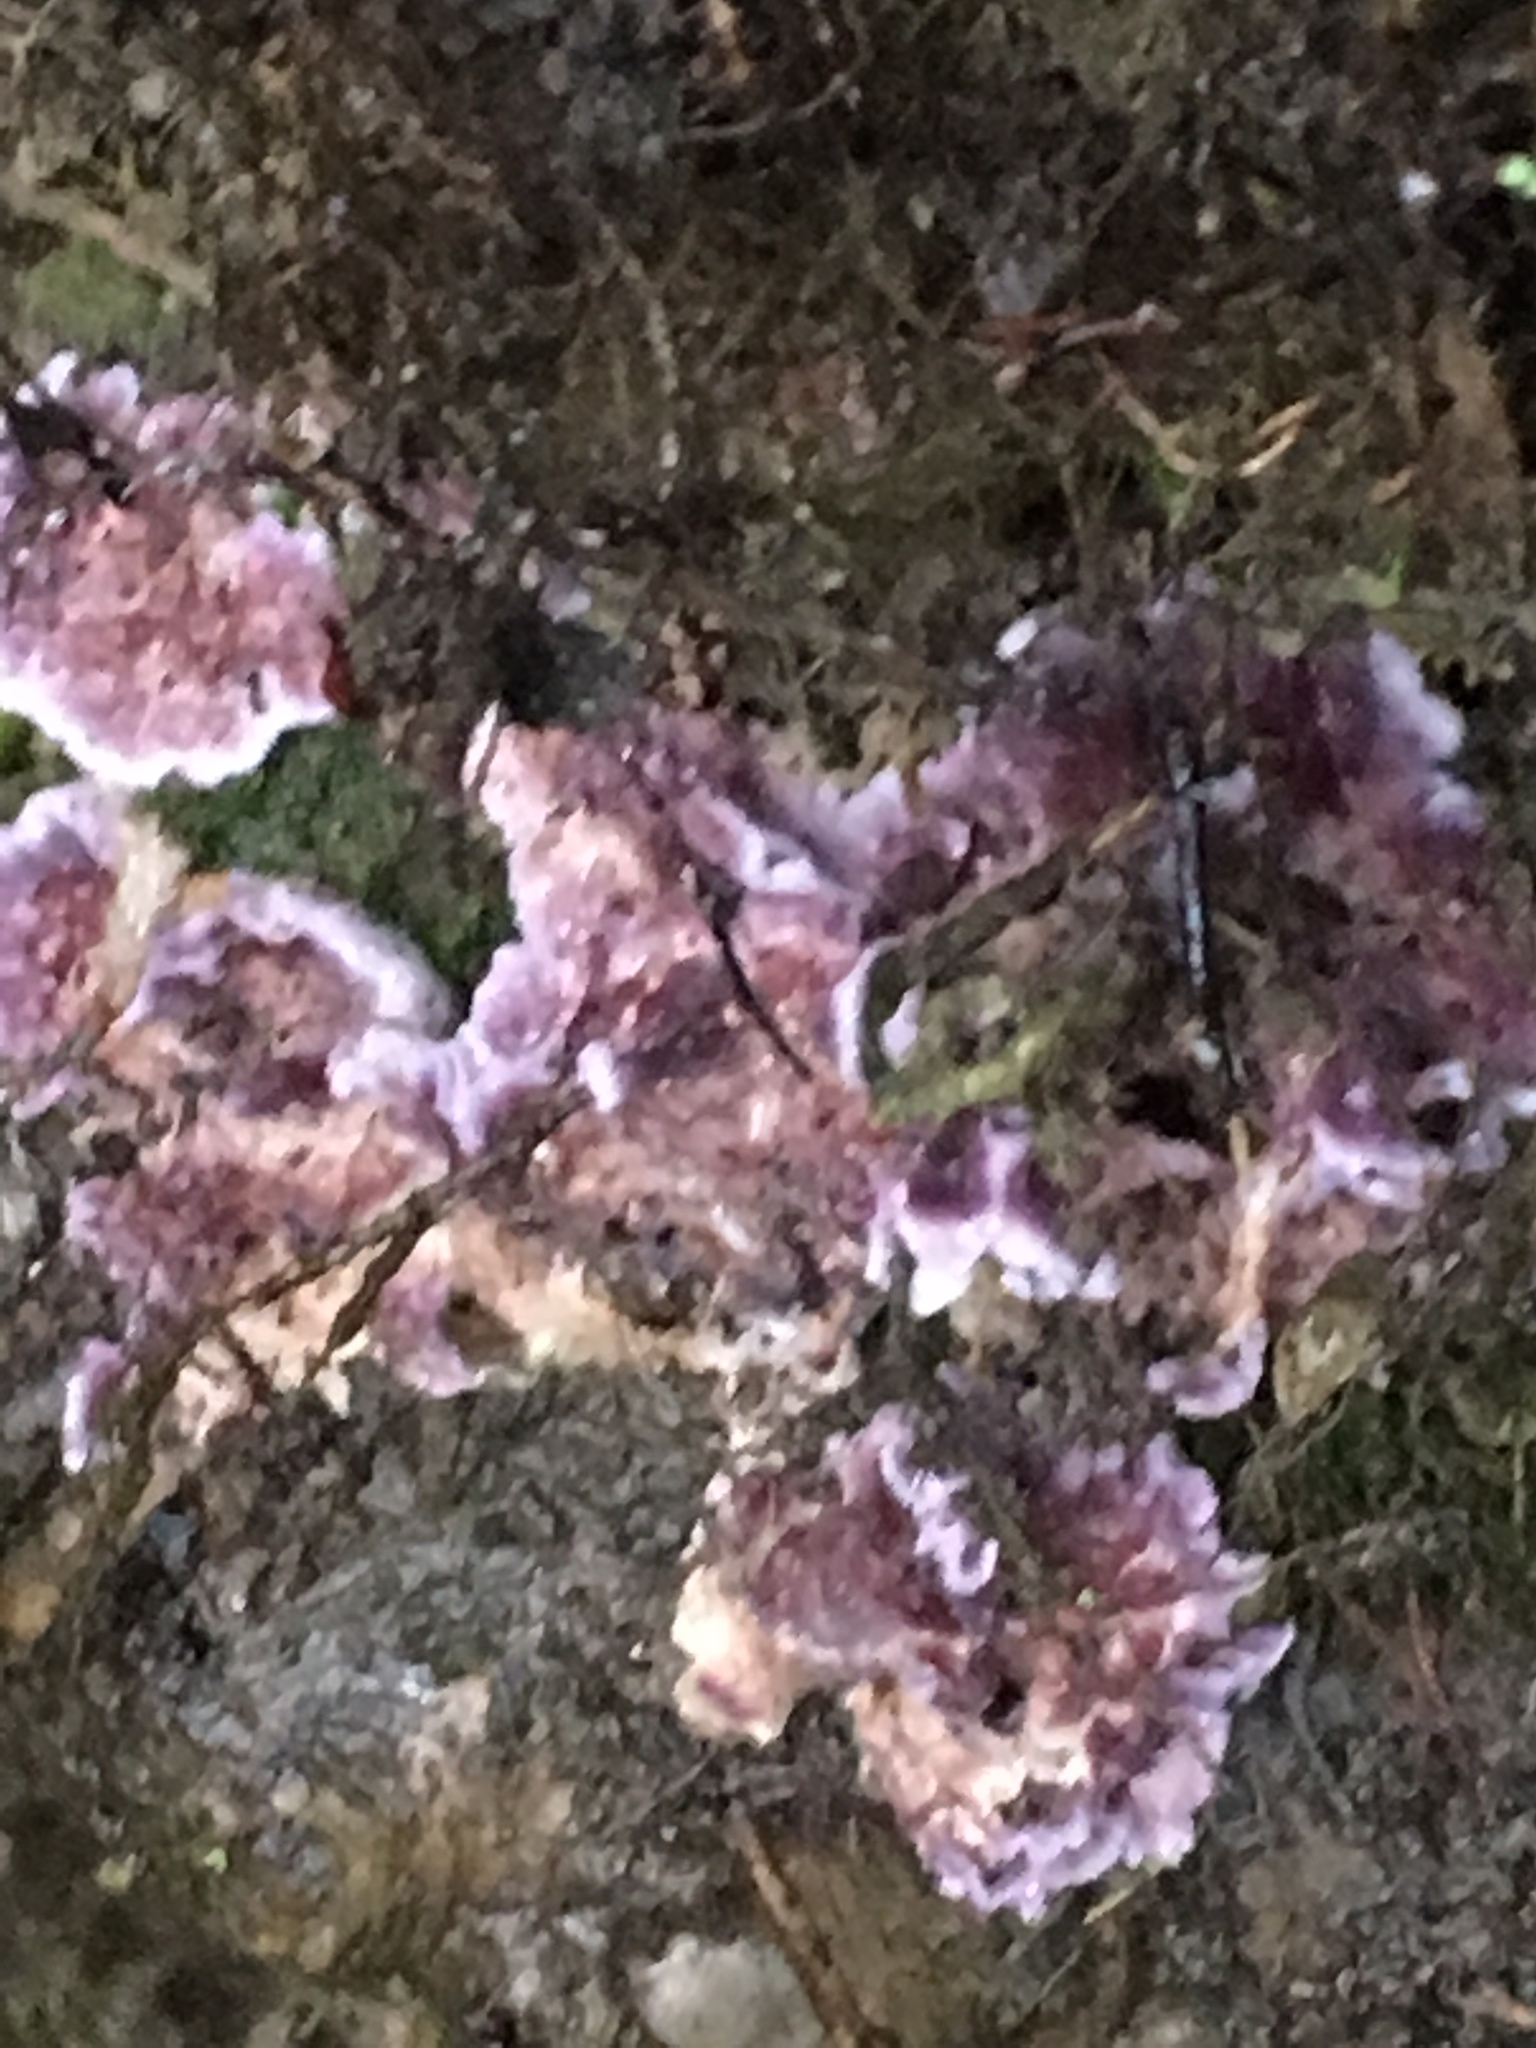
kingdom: Fungi
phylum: Basidiomycota
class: Agaricomycetes
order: Agaricales
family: Cyphellaceae
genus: Chondrostereum
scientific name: Chondrostereum purpureum
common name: Silver leaf disease
